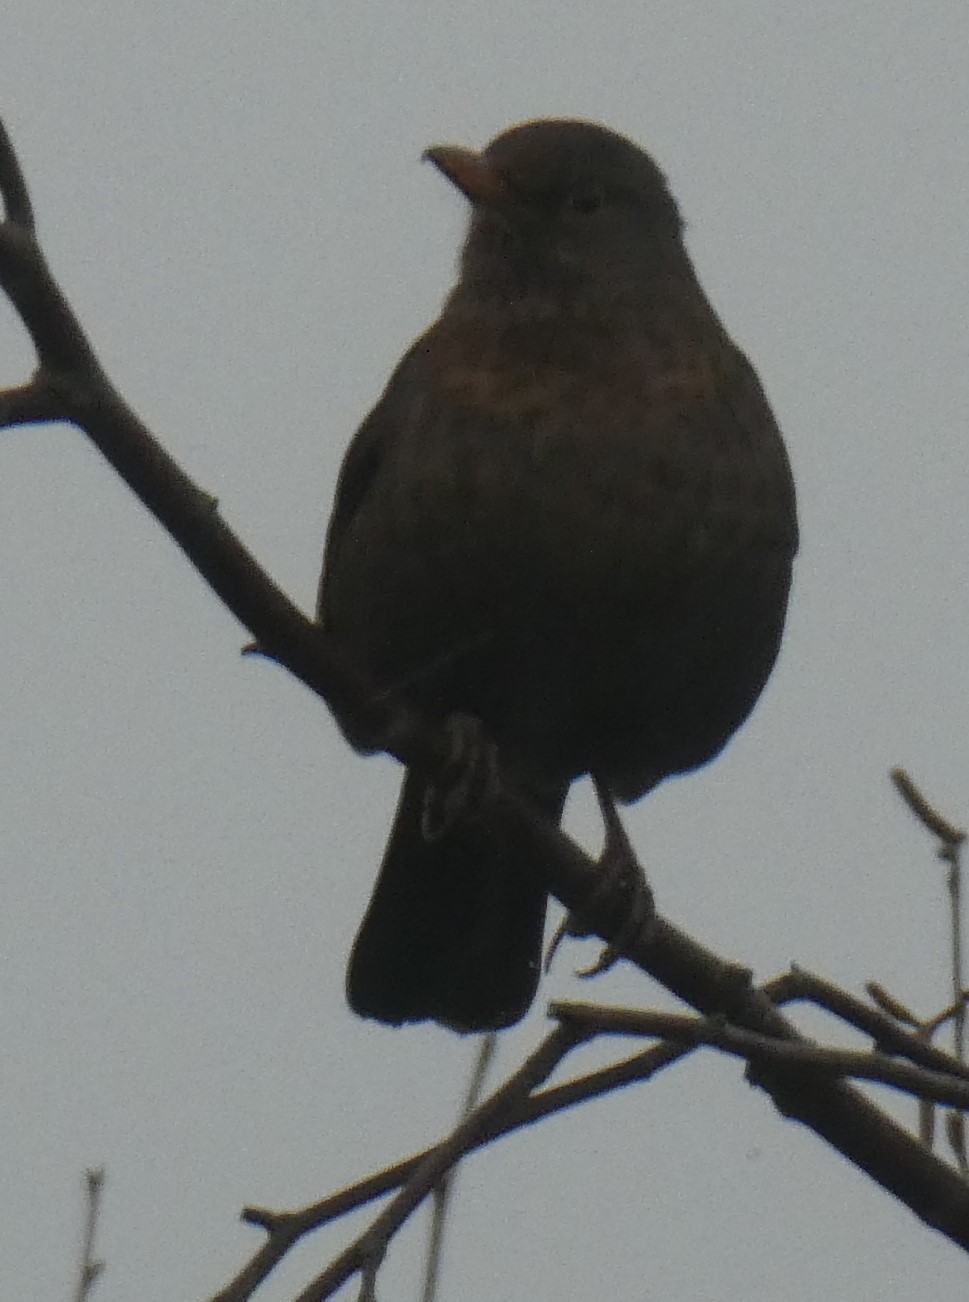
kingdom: Animalia
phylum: Chordata
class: Aves
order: Passeriformes
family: Turdidae
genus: Turdus
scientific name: Turdus merula
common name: Common blackbird
